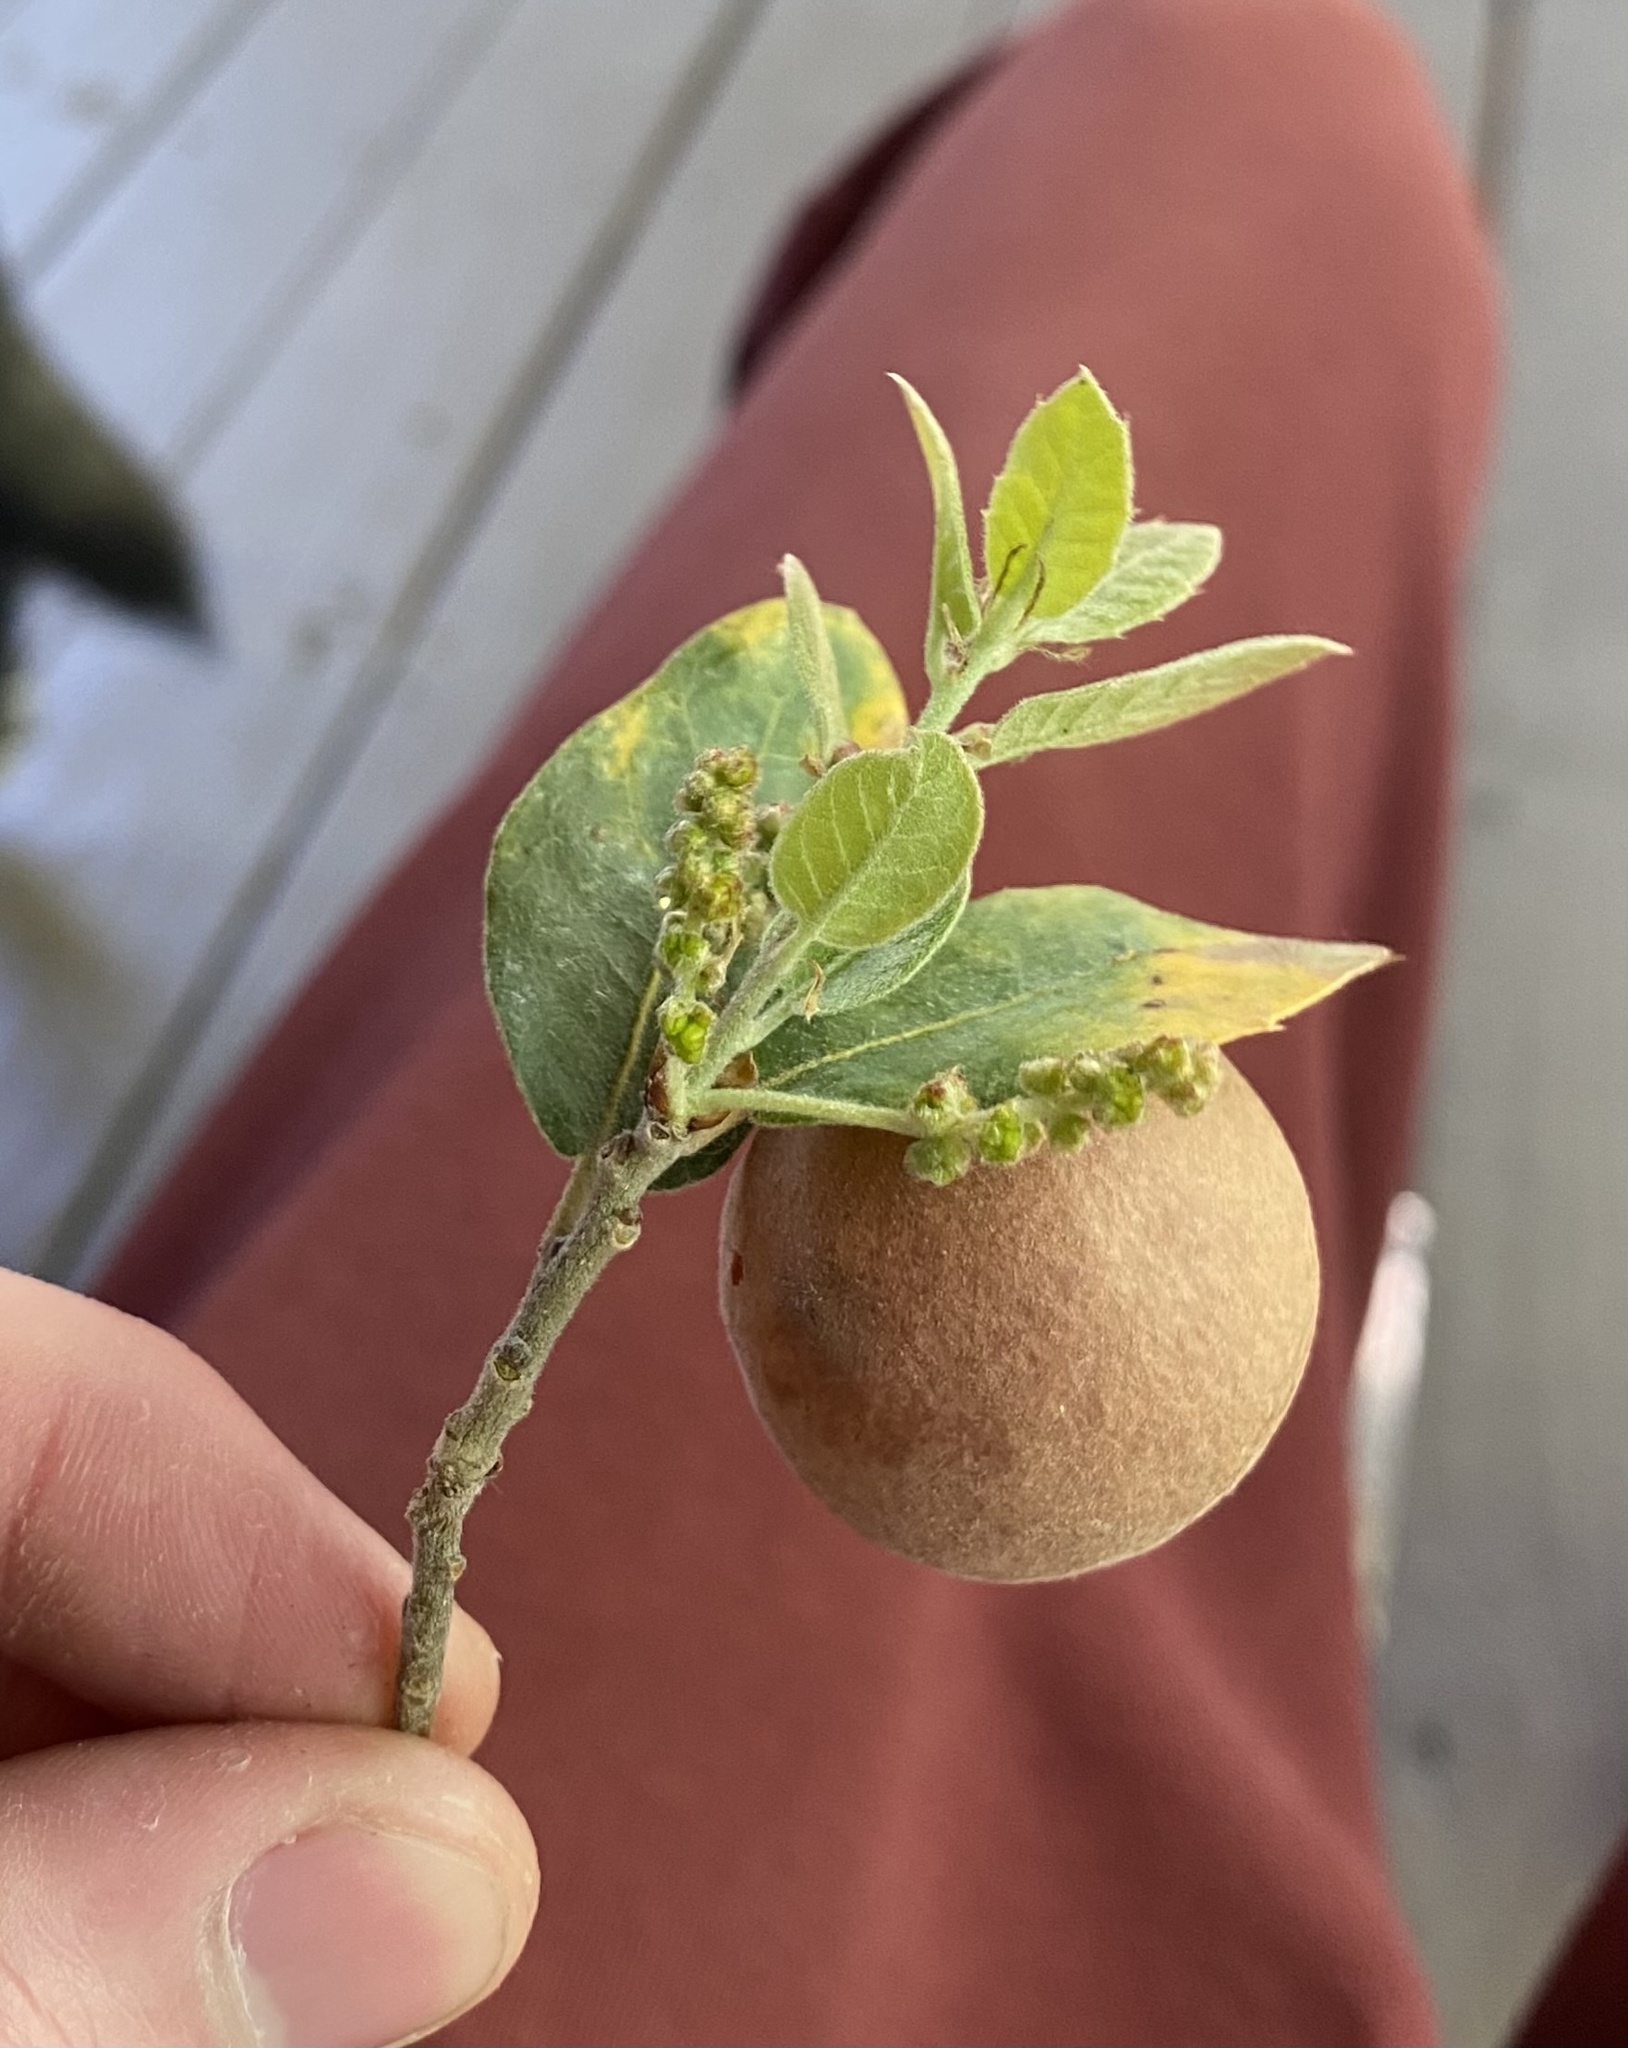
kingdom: Animalia
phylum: Arthropoda
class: Insecta
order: Hymenoptera
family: Cynipidae
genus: Biorhiza
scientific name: Biorhiza
